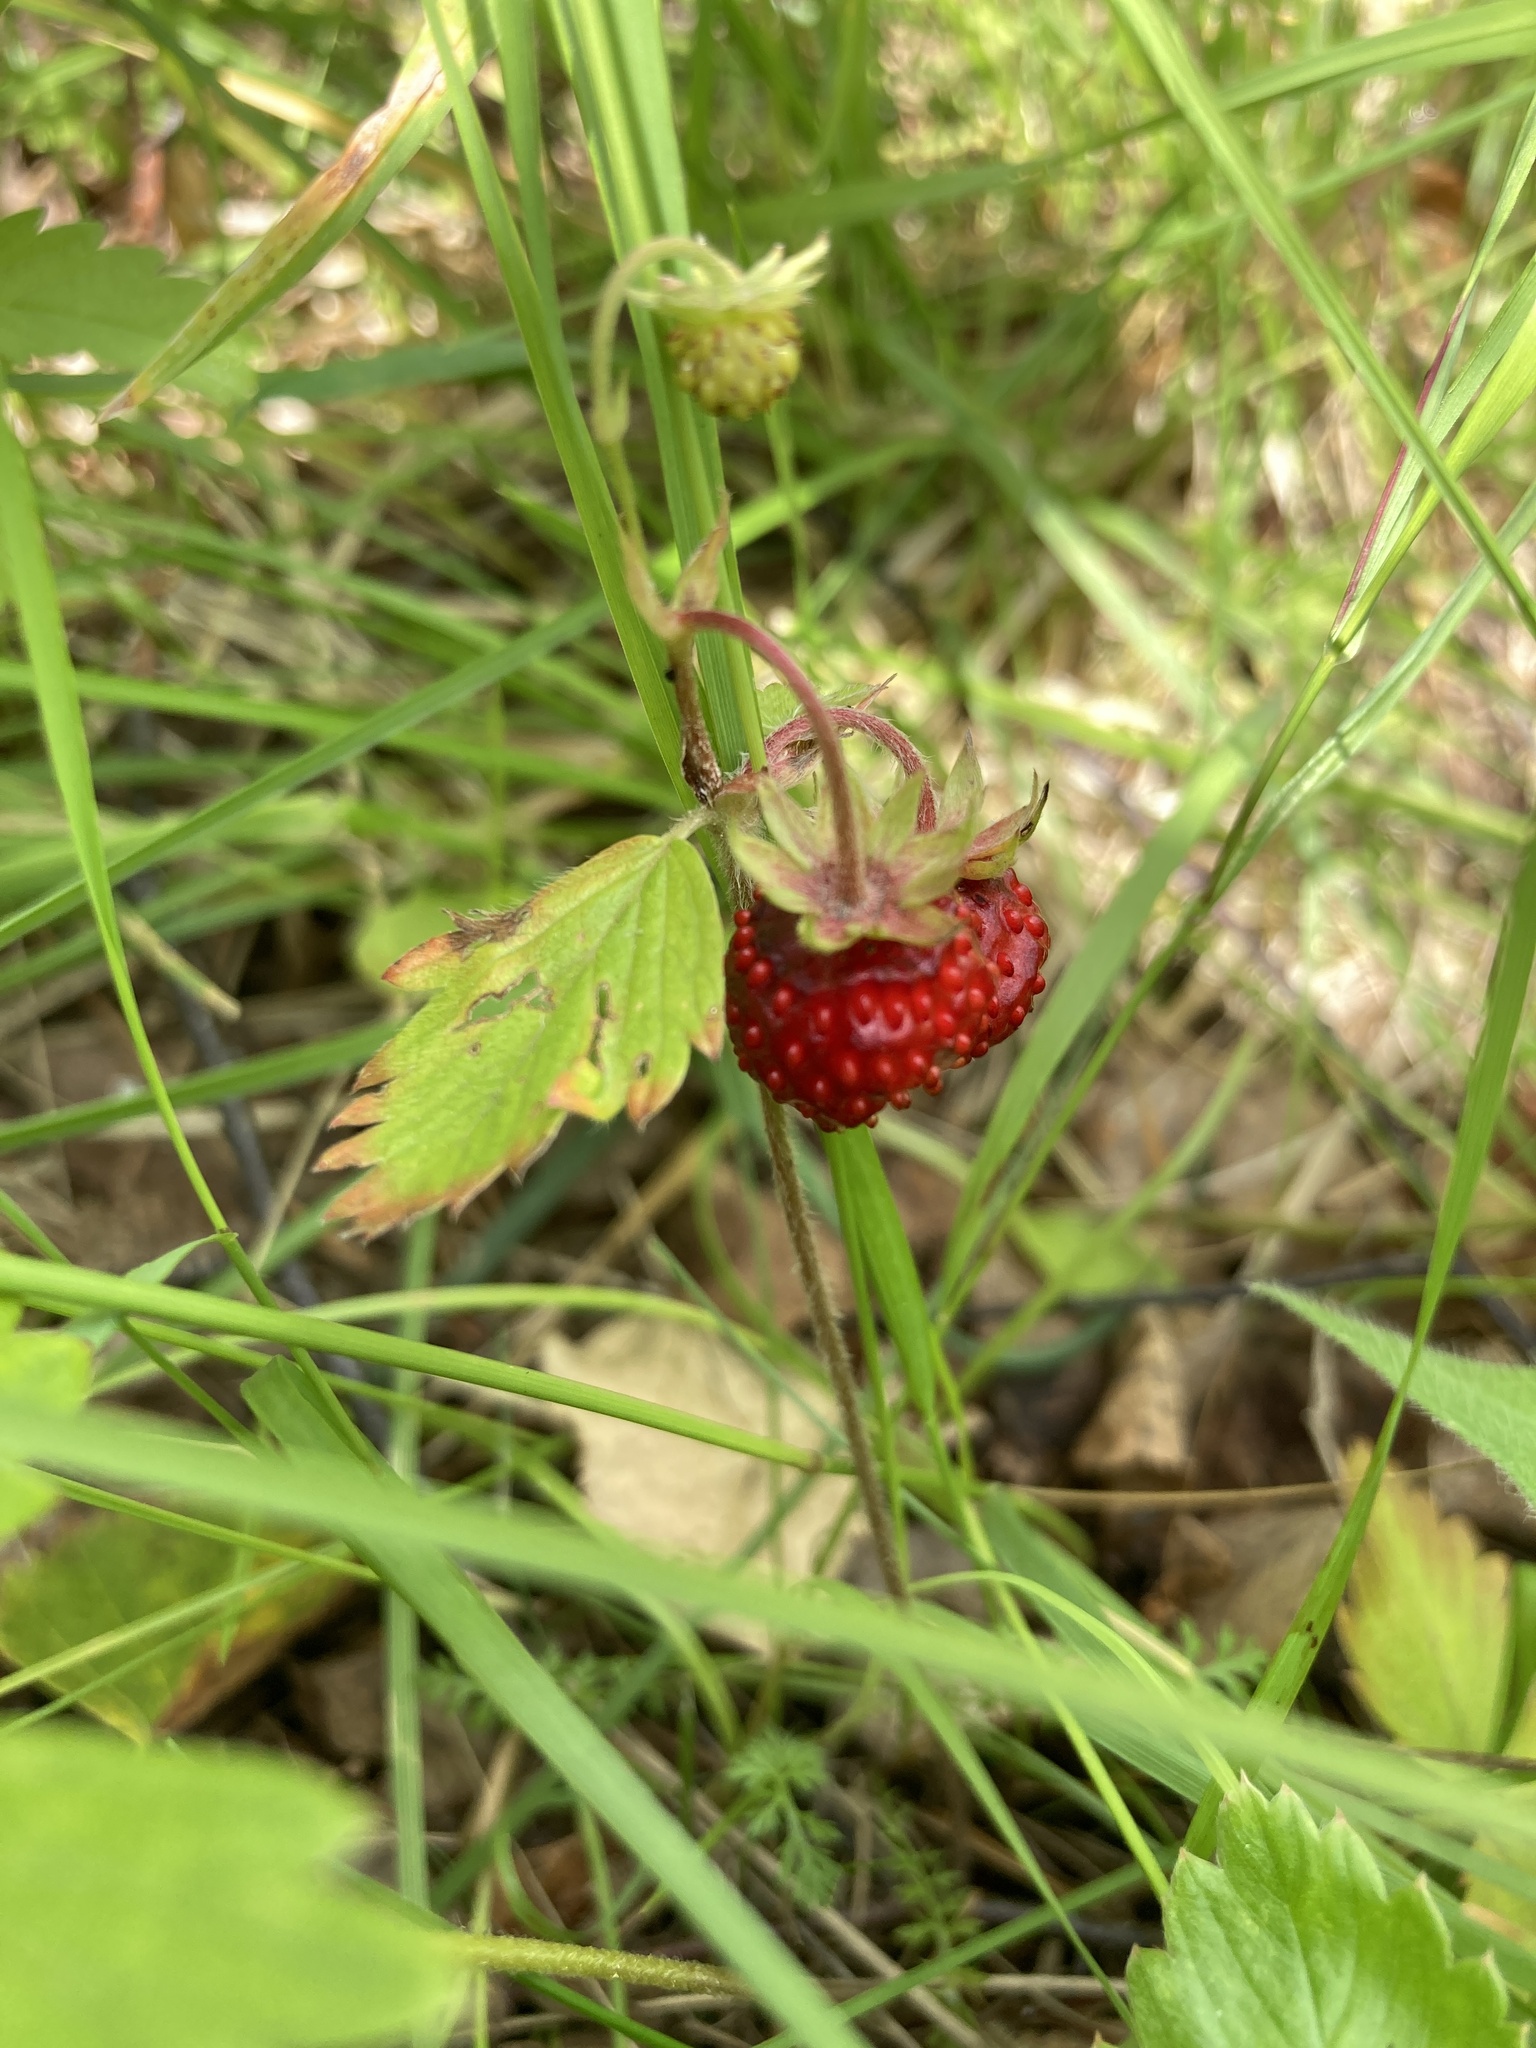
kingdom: Plantae
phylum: Tracheophyta
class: Magnoliopsida
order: Rosales
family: Rosaceae
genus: Fragaria
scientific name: Fragaria vesca
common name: Wild strawberry
